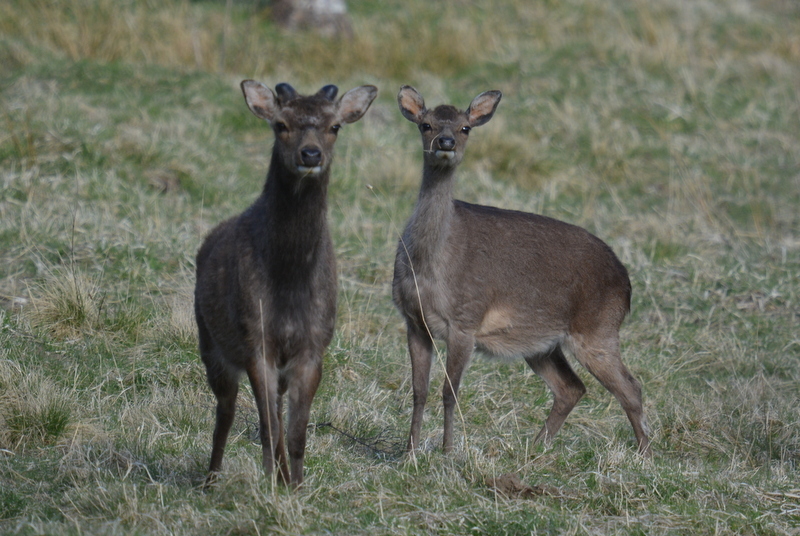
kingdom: Animalia
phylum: Chordata
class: Mammalia
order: Artiodactyla
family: Cervidae
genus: Cervus
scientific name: Cervus nippon
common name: Sika deer
